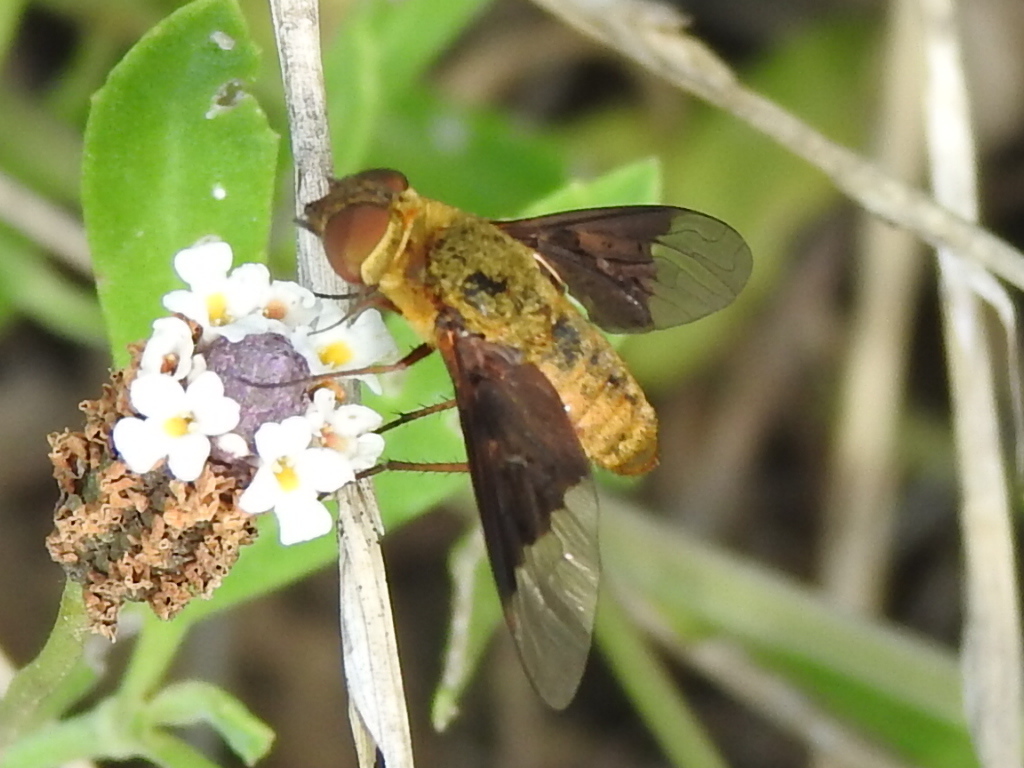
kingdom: Animalia
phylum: Arthropoda
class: Insecta
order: Diptera
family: Bombyliidae
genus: Chrysanthrax
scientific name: Chrysanthrax cypris
